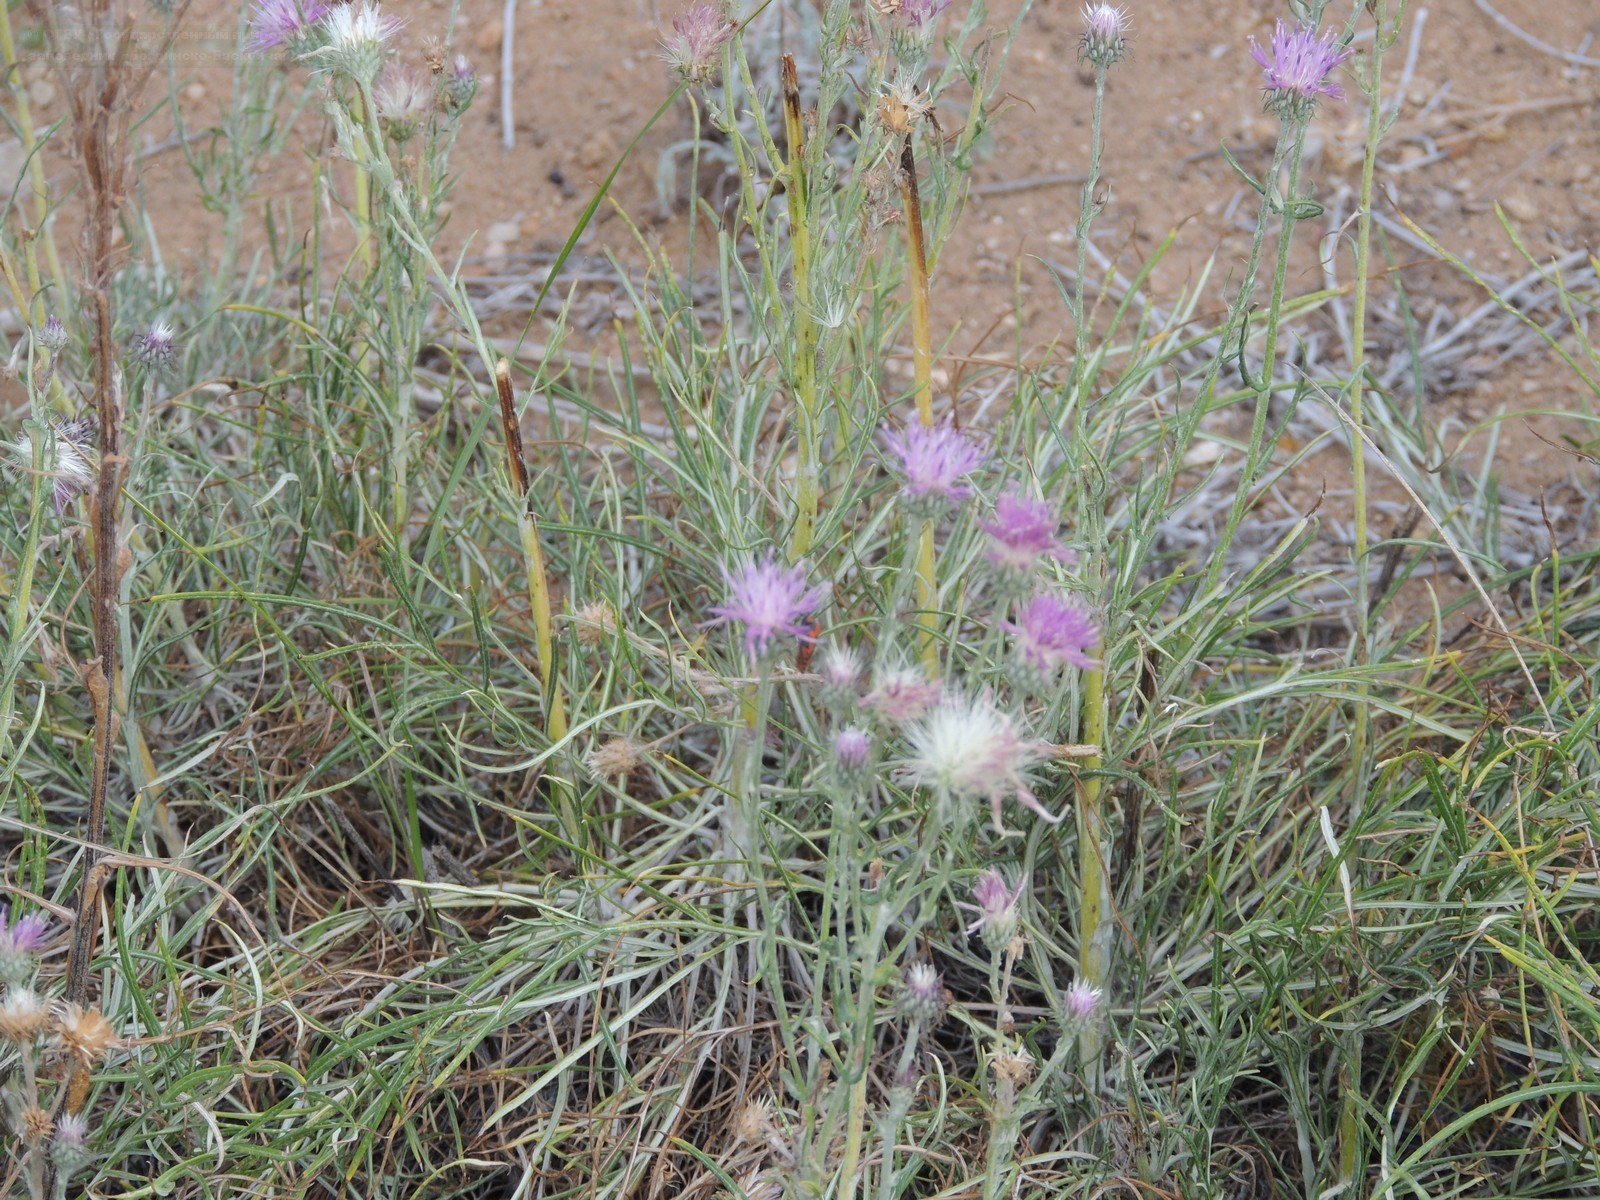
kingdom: Plantae
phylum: Tracheophyta
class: Magnoliopsida
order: Asterales
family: Asteraceae
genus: Jurinea
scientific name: Jurinea polyclonos
